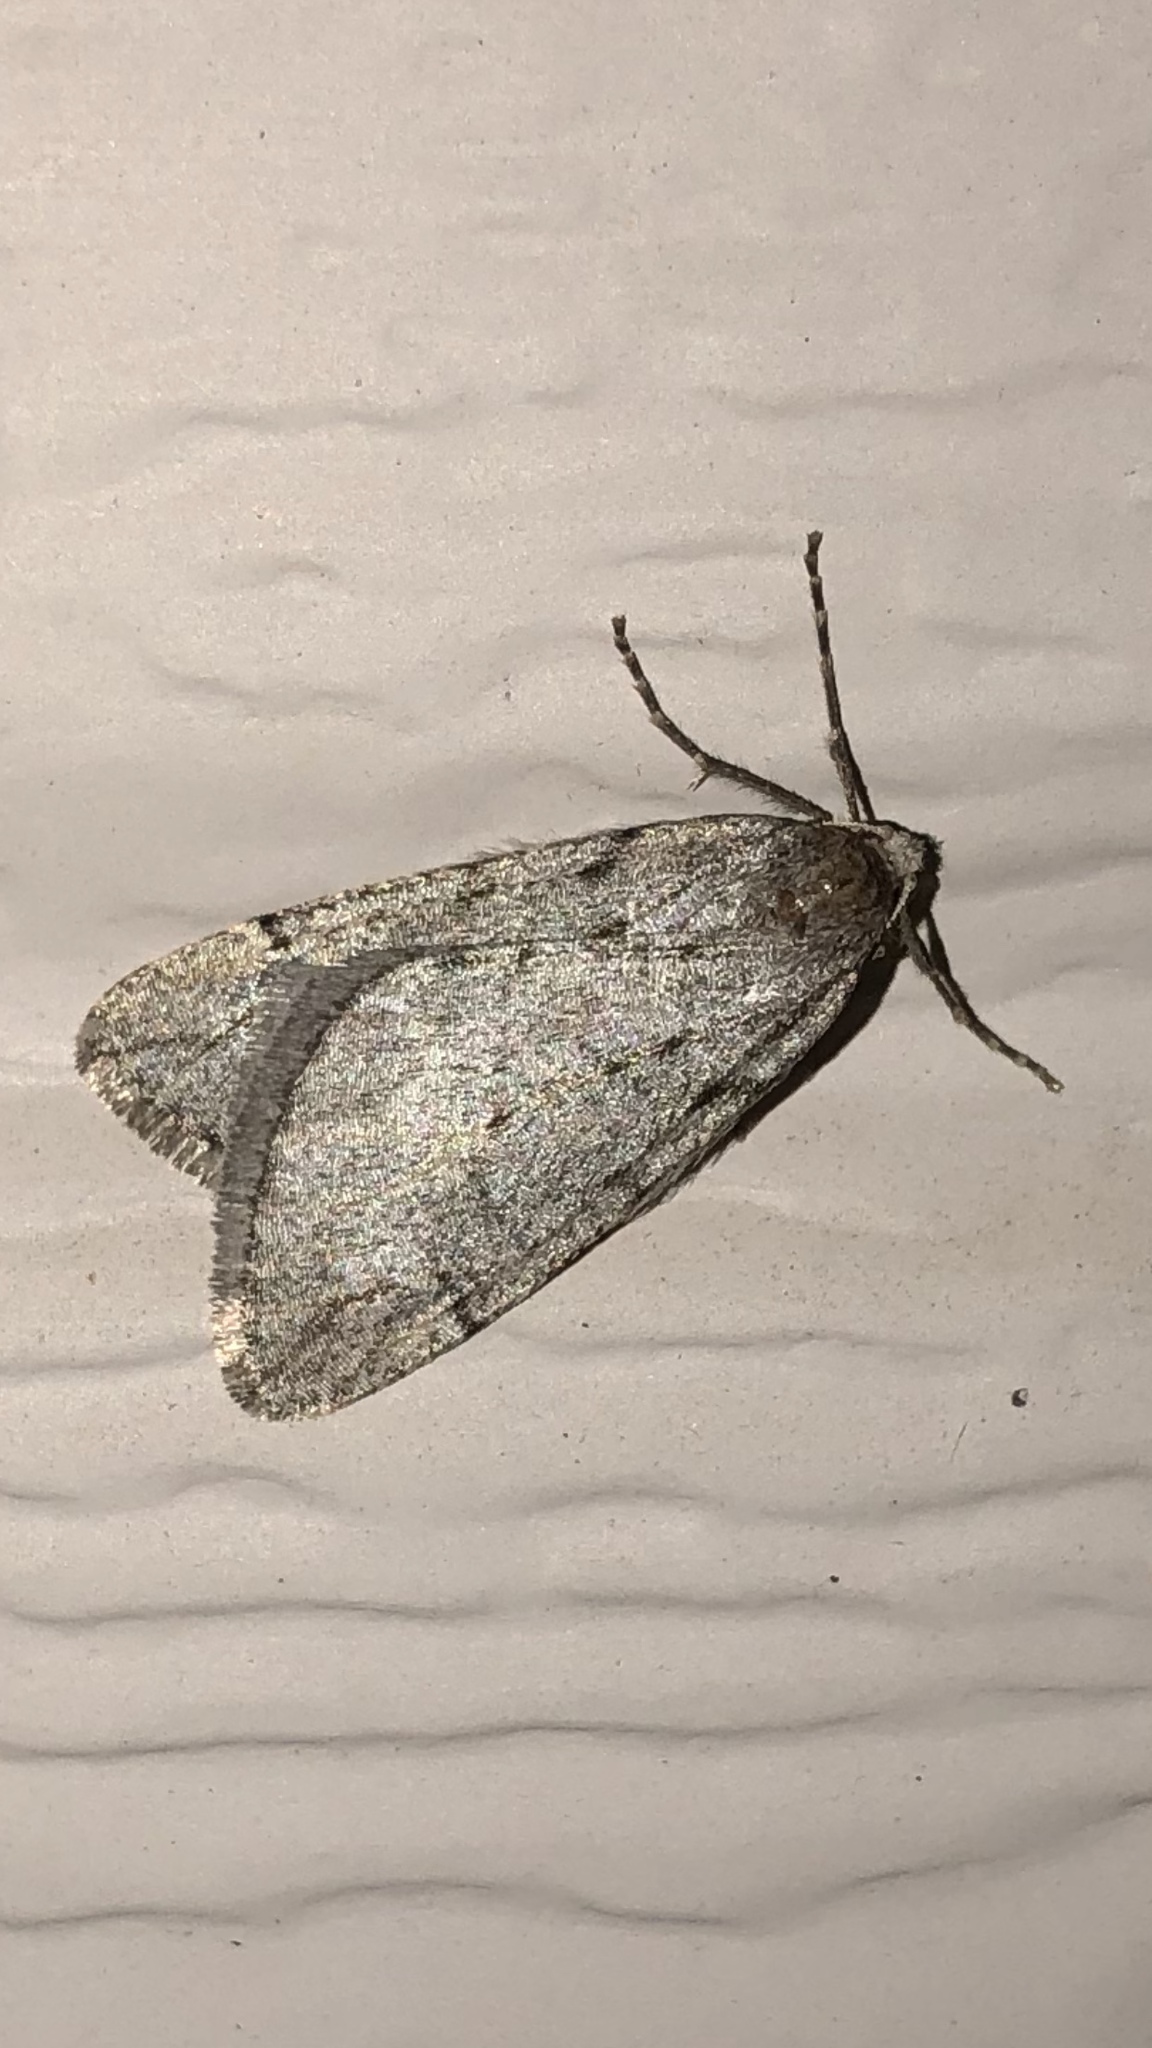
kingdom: Animalia
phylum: Arthropoda
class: Insecta
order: Lepidoptera
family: Geometridae
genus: Paleacrita
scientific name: Paleacrita vernata
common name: Spring cankerworm
